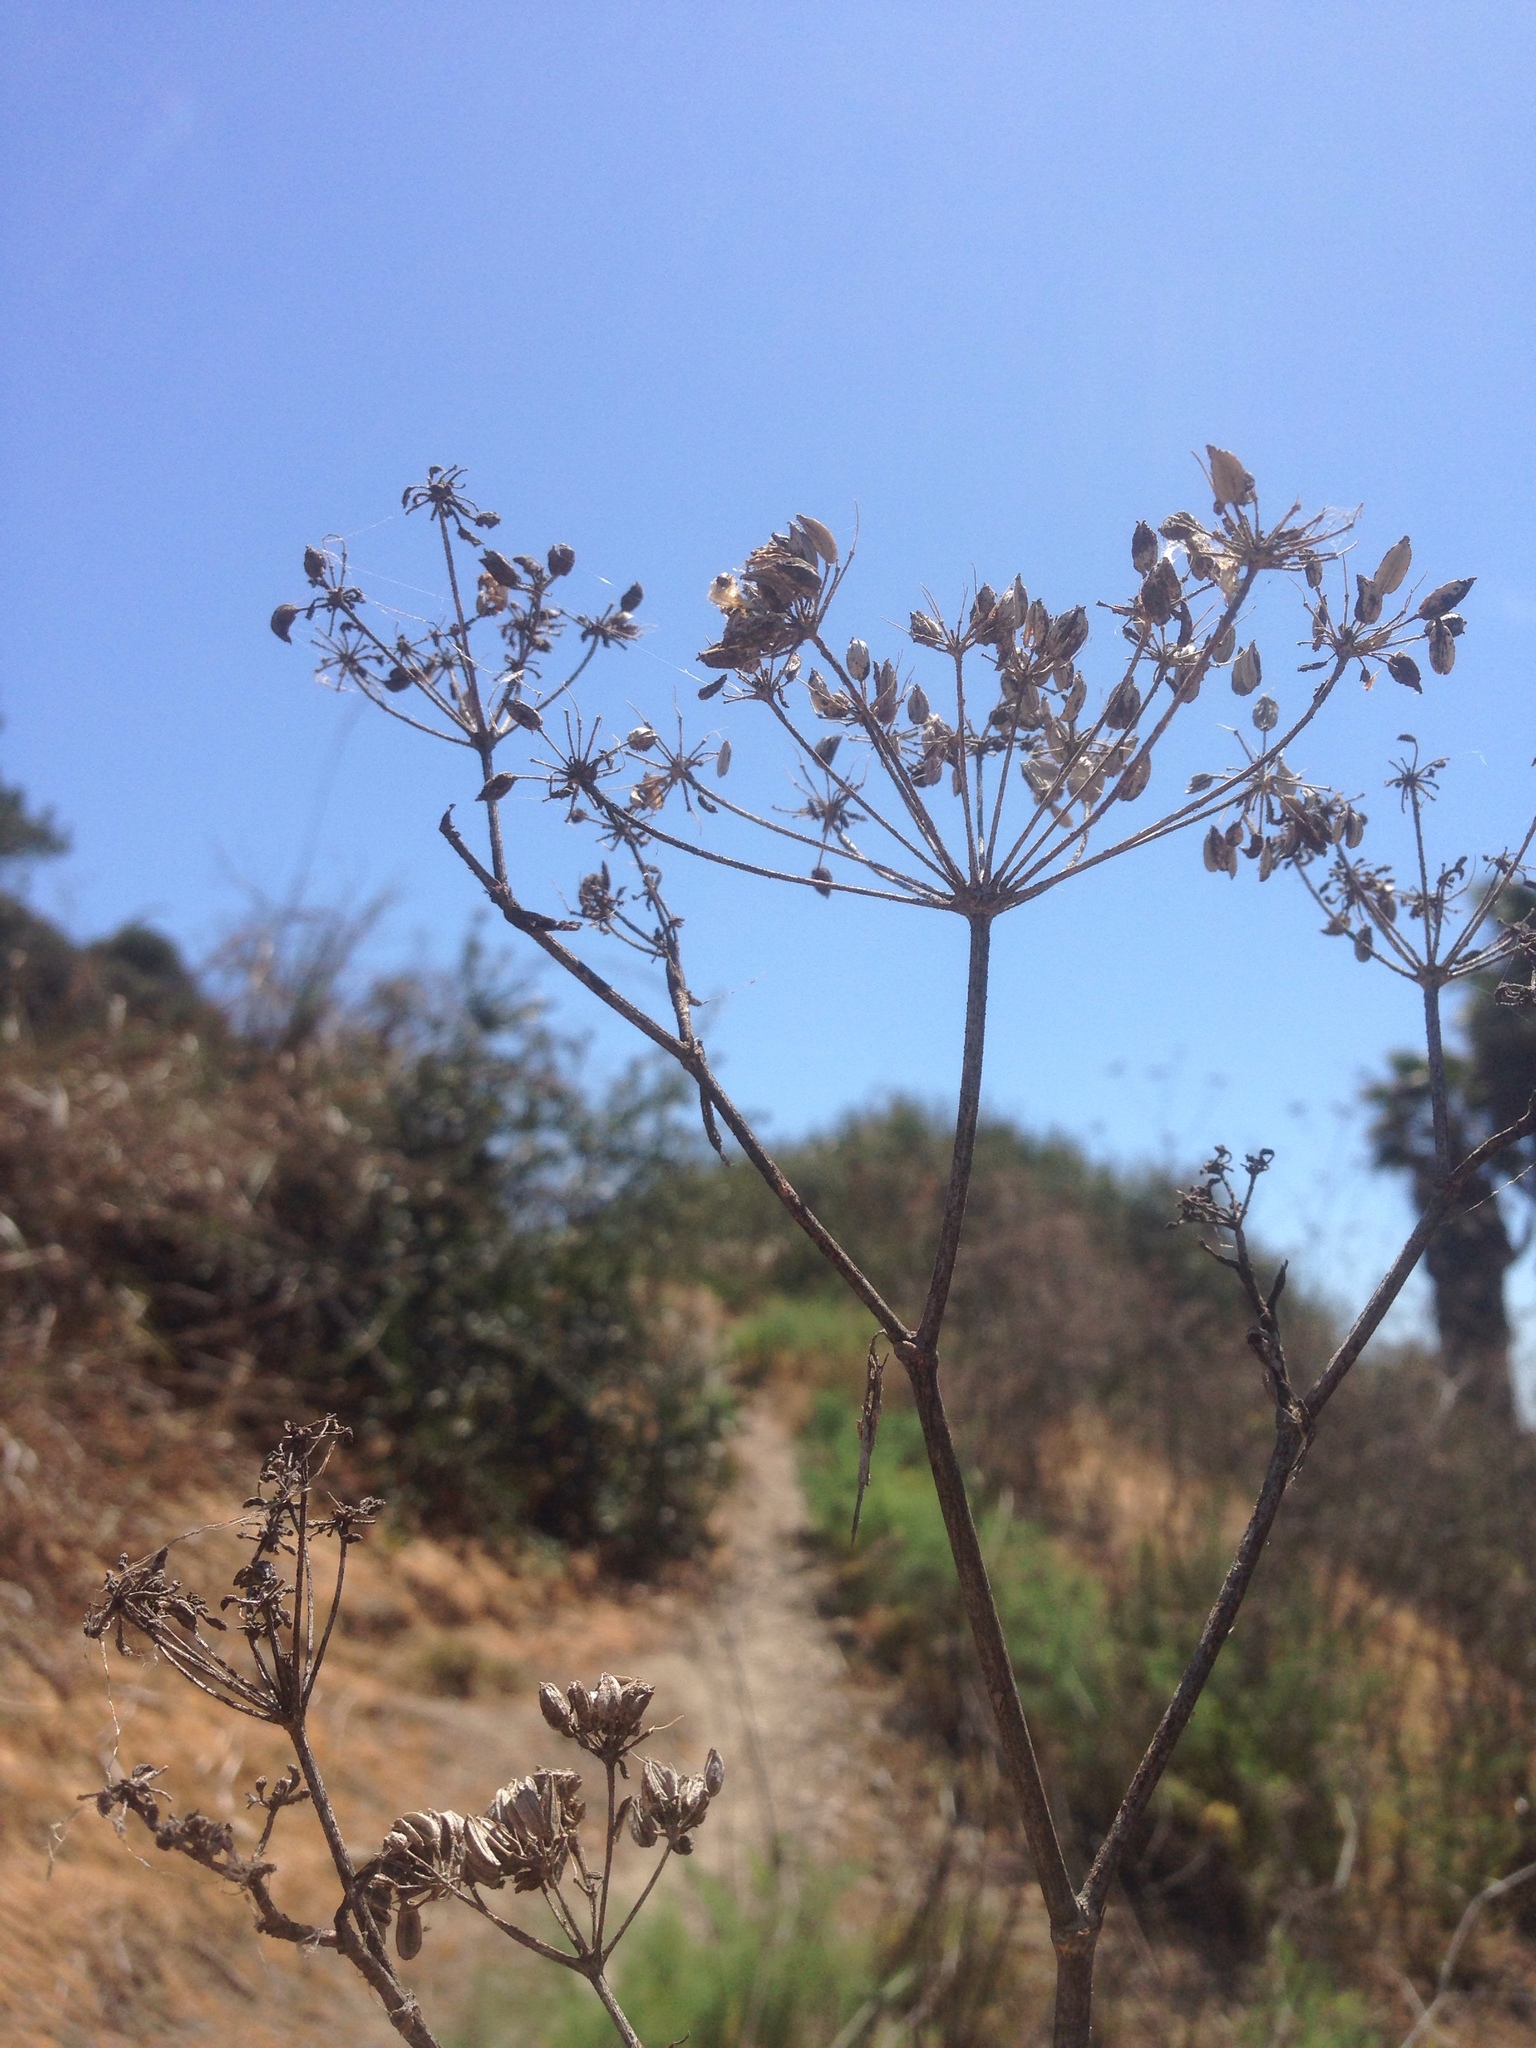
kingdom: Plantae
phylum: Tracheophyta
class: Magnoliopsida
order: Apiales
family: Apiaceae
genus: Foeniculum
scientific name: Foeniculum vulgare
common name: Fennel
